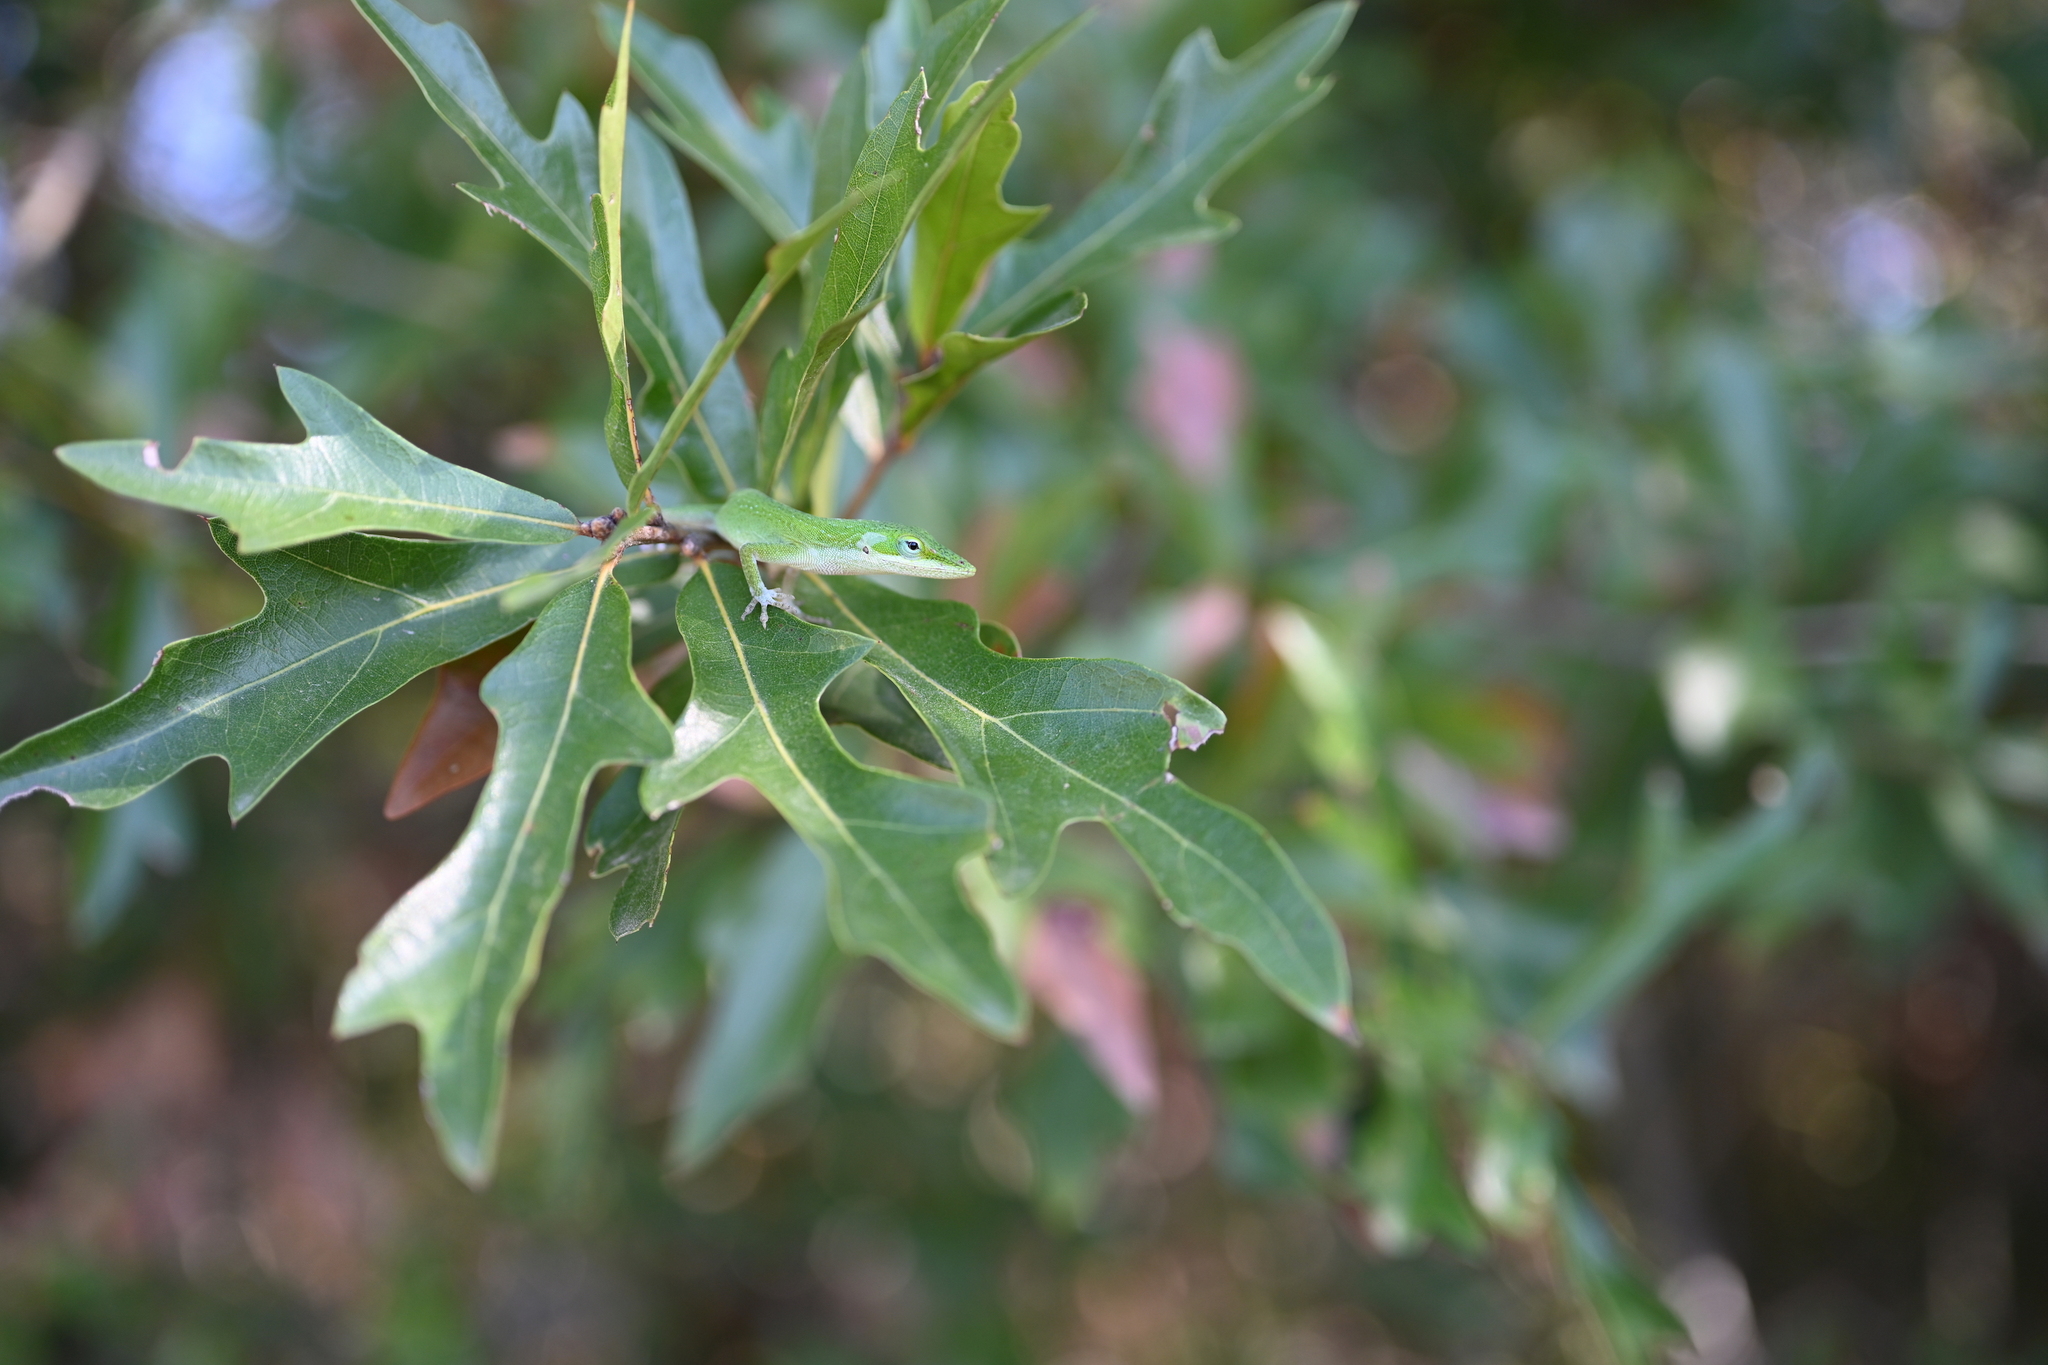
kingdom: Animalia
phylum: Chordata
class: Squamata
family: Dactyloidae
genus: Anolis
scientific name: Anolis carolinensis
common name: Green anole
